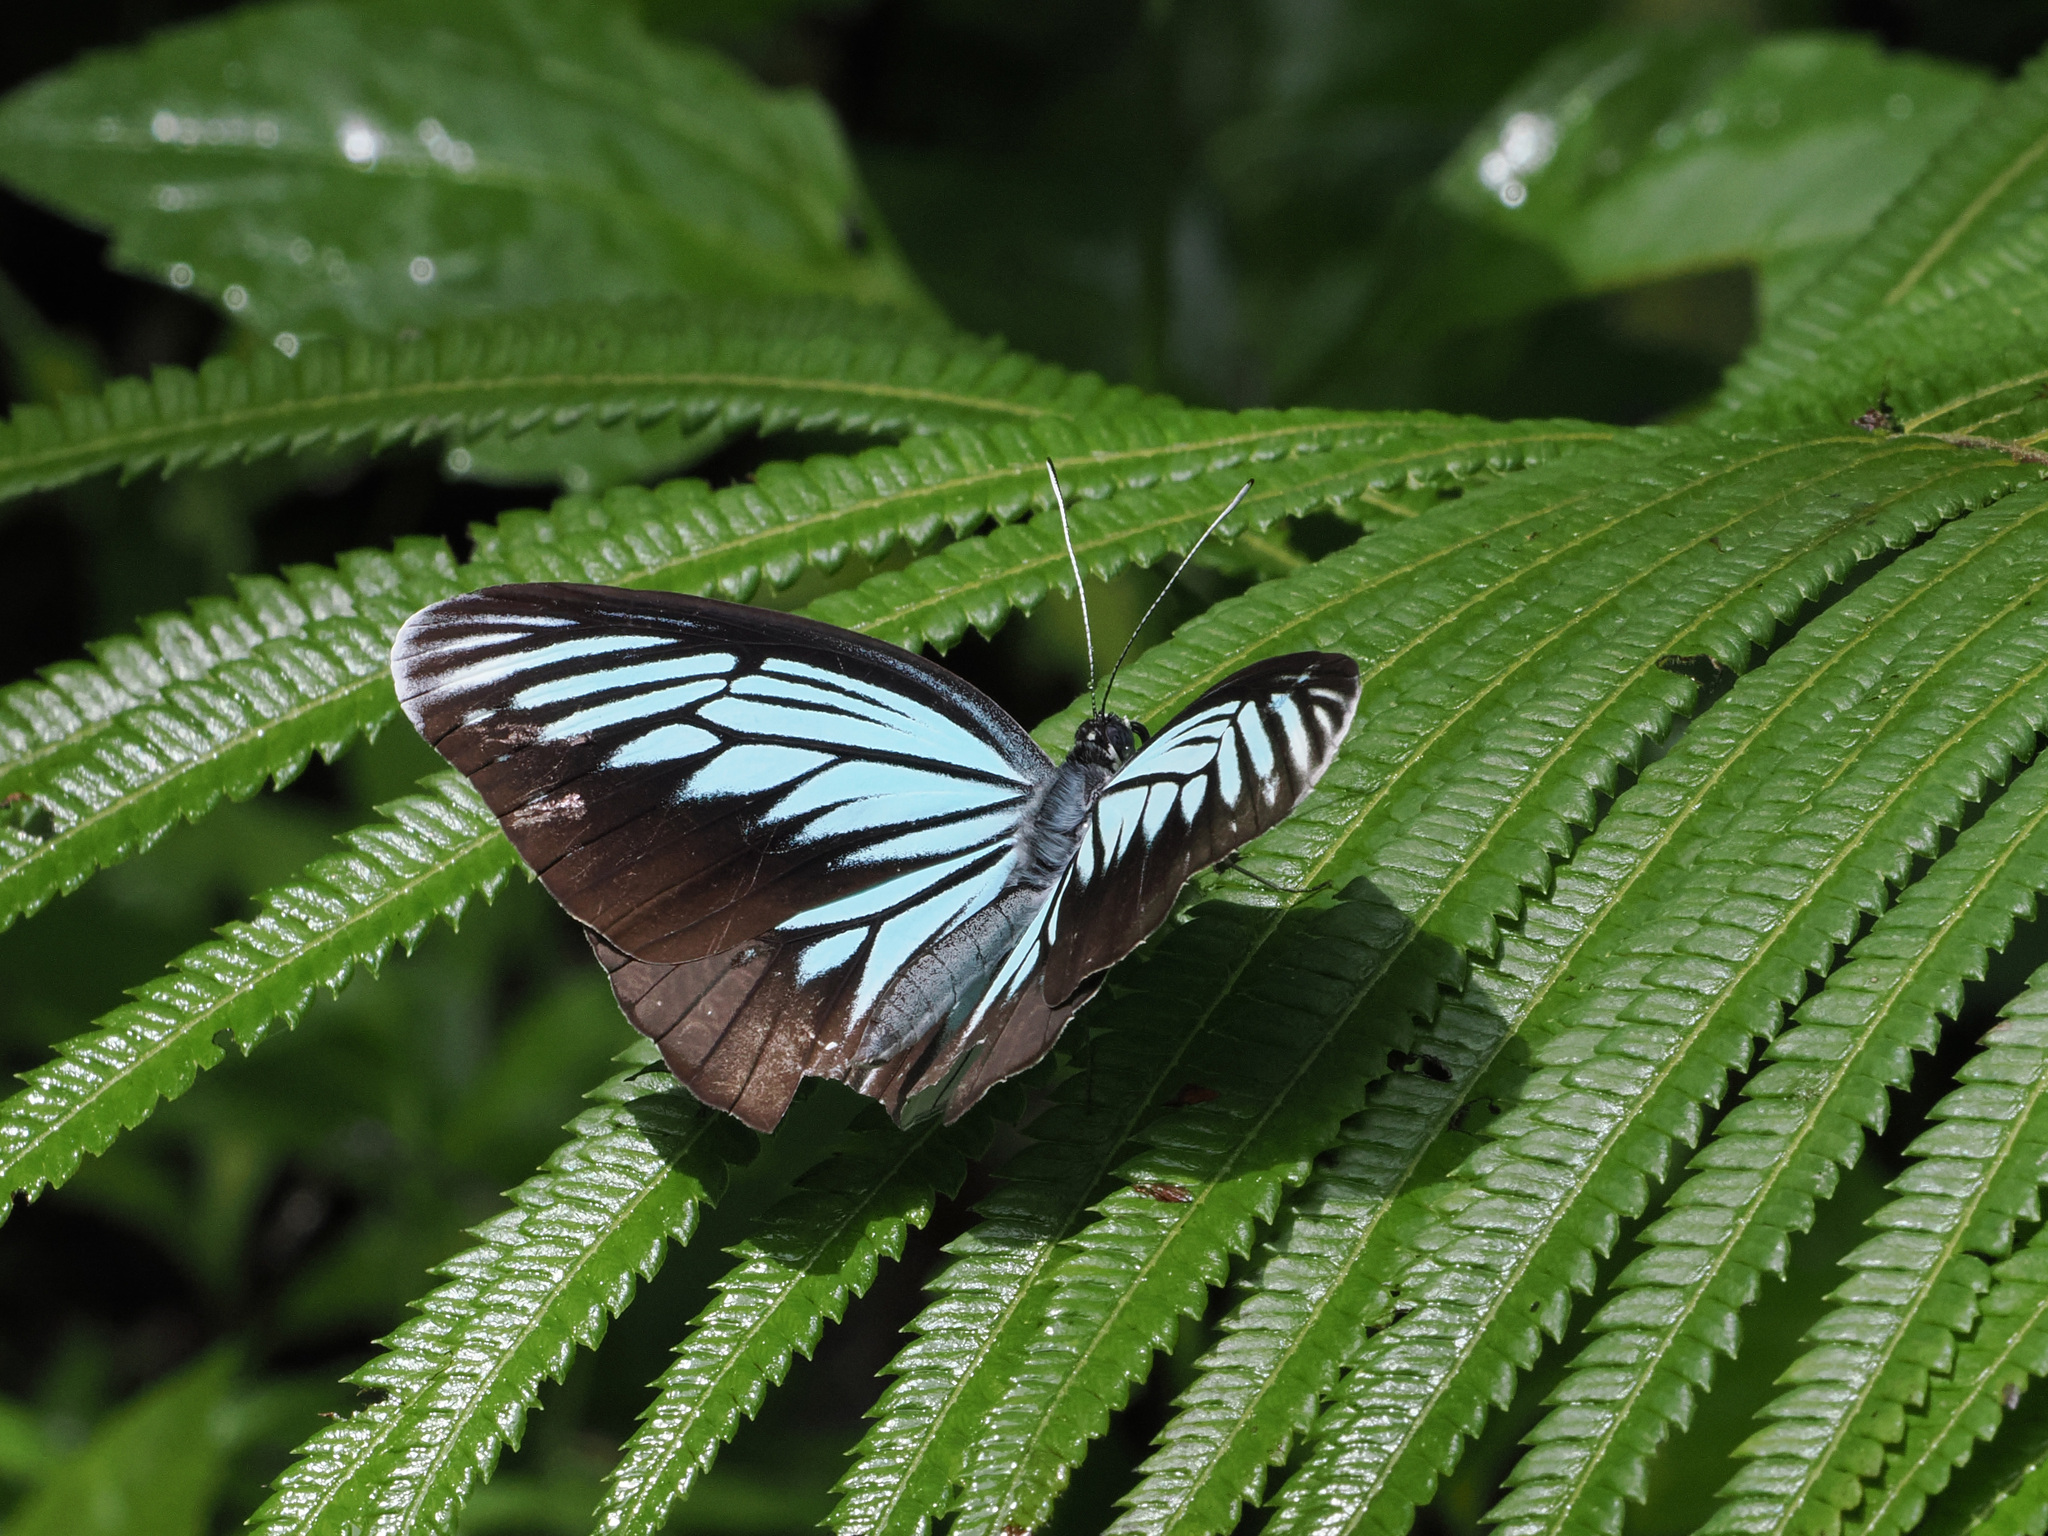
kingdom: Animalia
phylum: Arthropoda
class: Insecta
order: Lepidoptera
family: Pieridae
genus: Pareronia
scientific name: Pareronia tritaea
